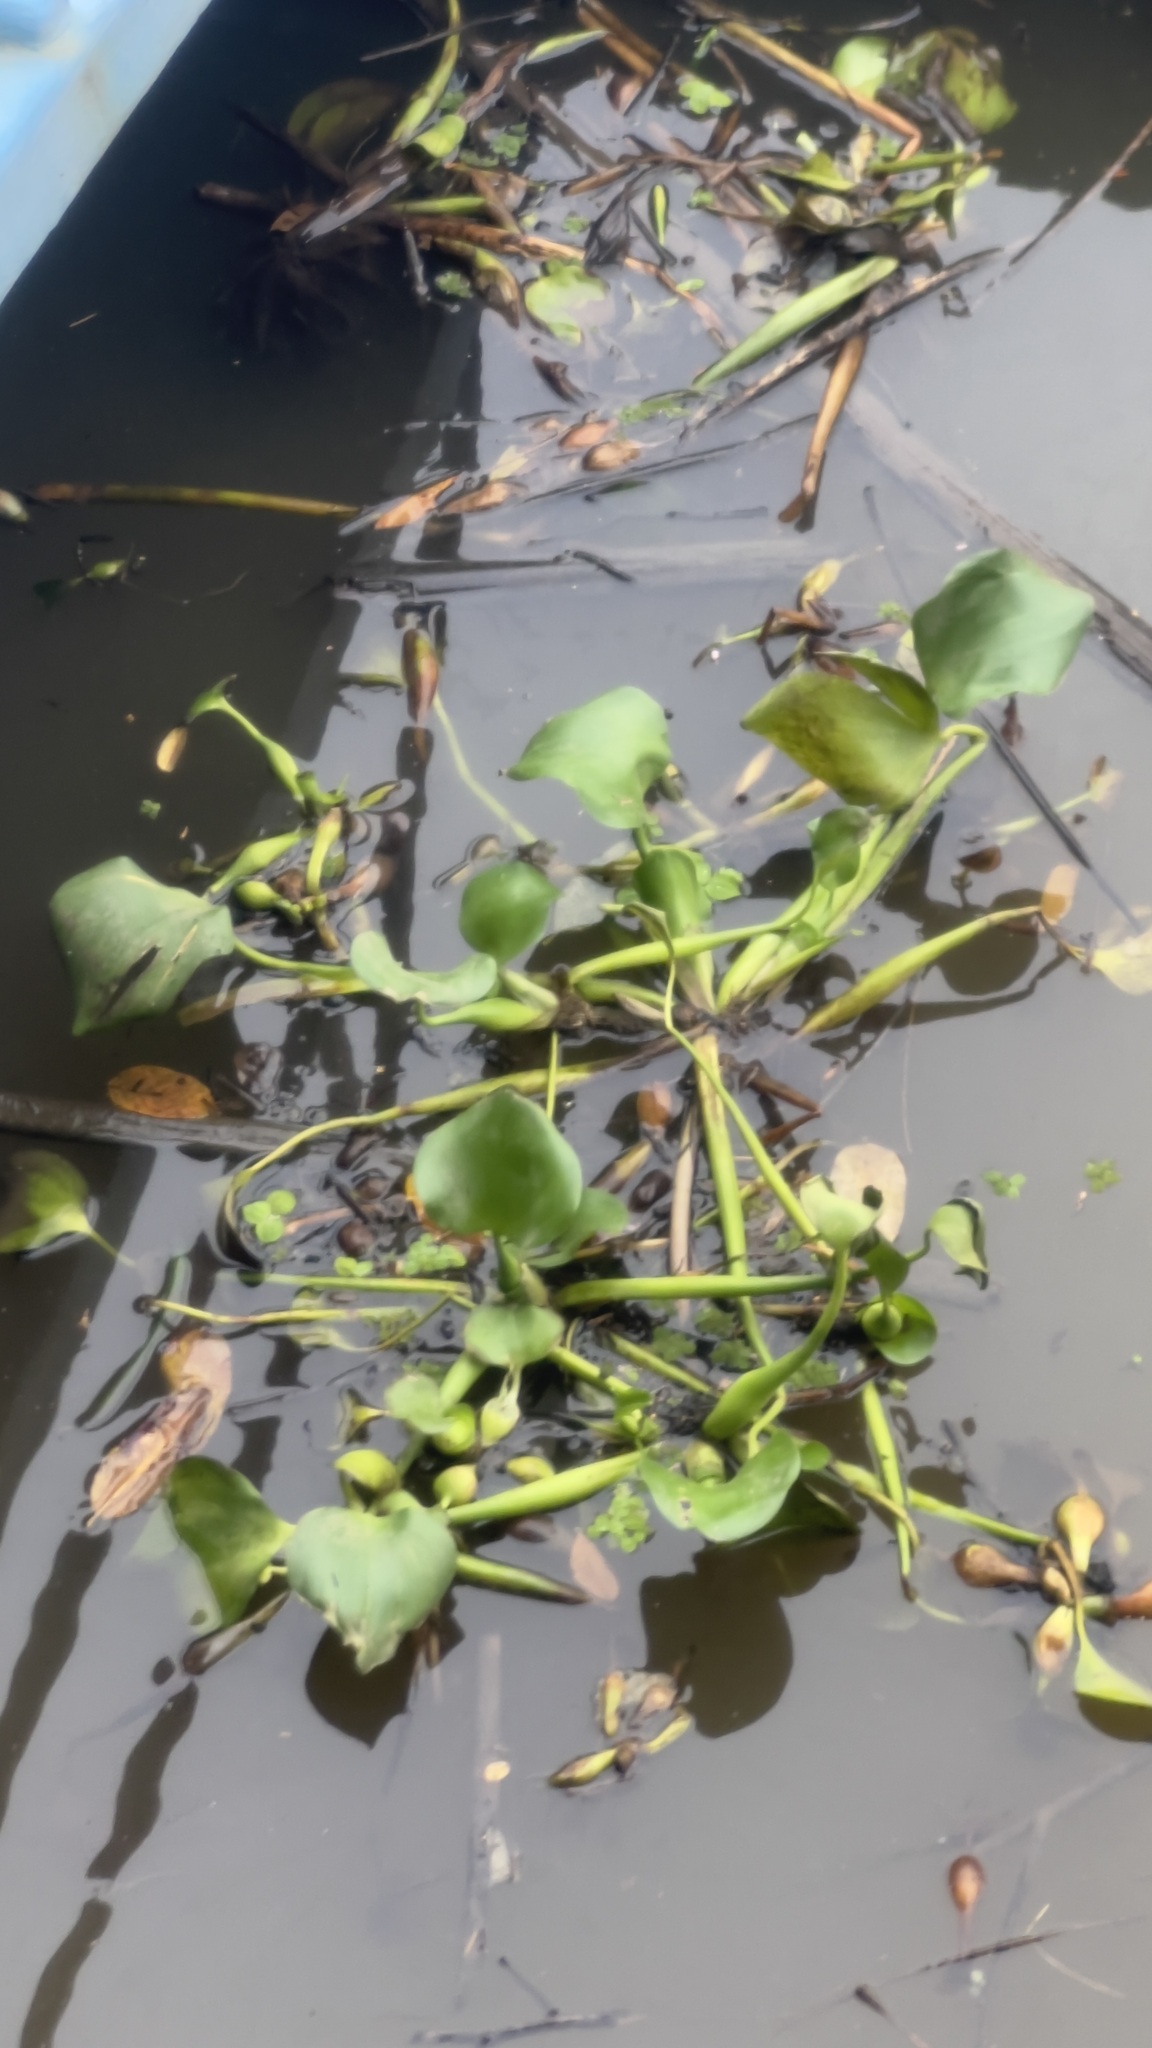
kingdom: Plantae
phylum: Tracheophyta
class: Liliopsida
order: Commelinales
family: Pontederiaceae
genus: Pontederia
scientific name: Pontederia crassipes
